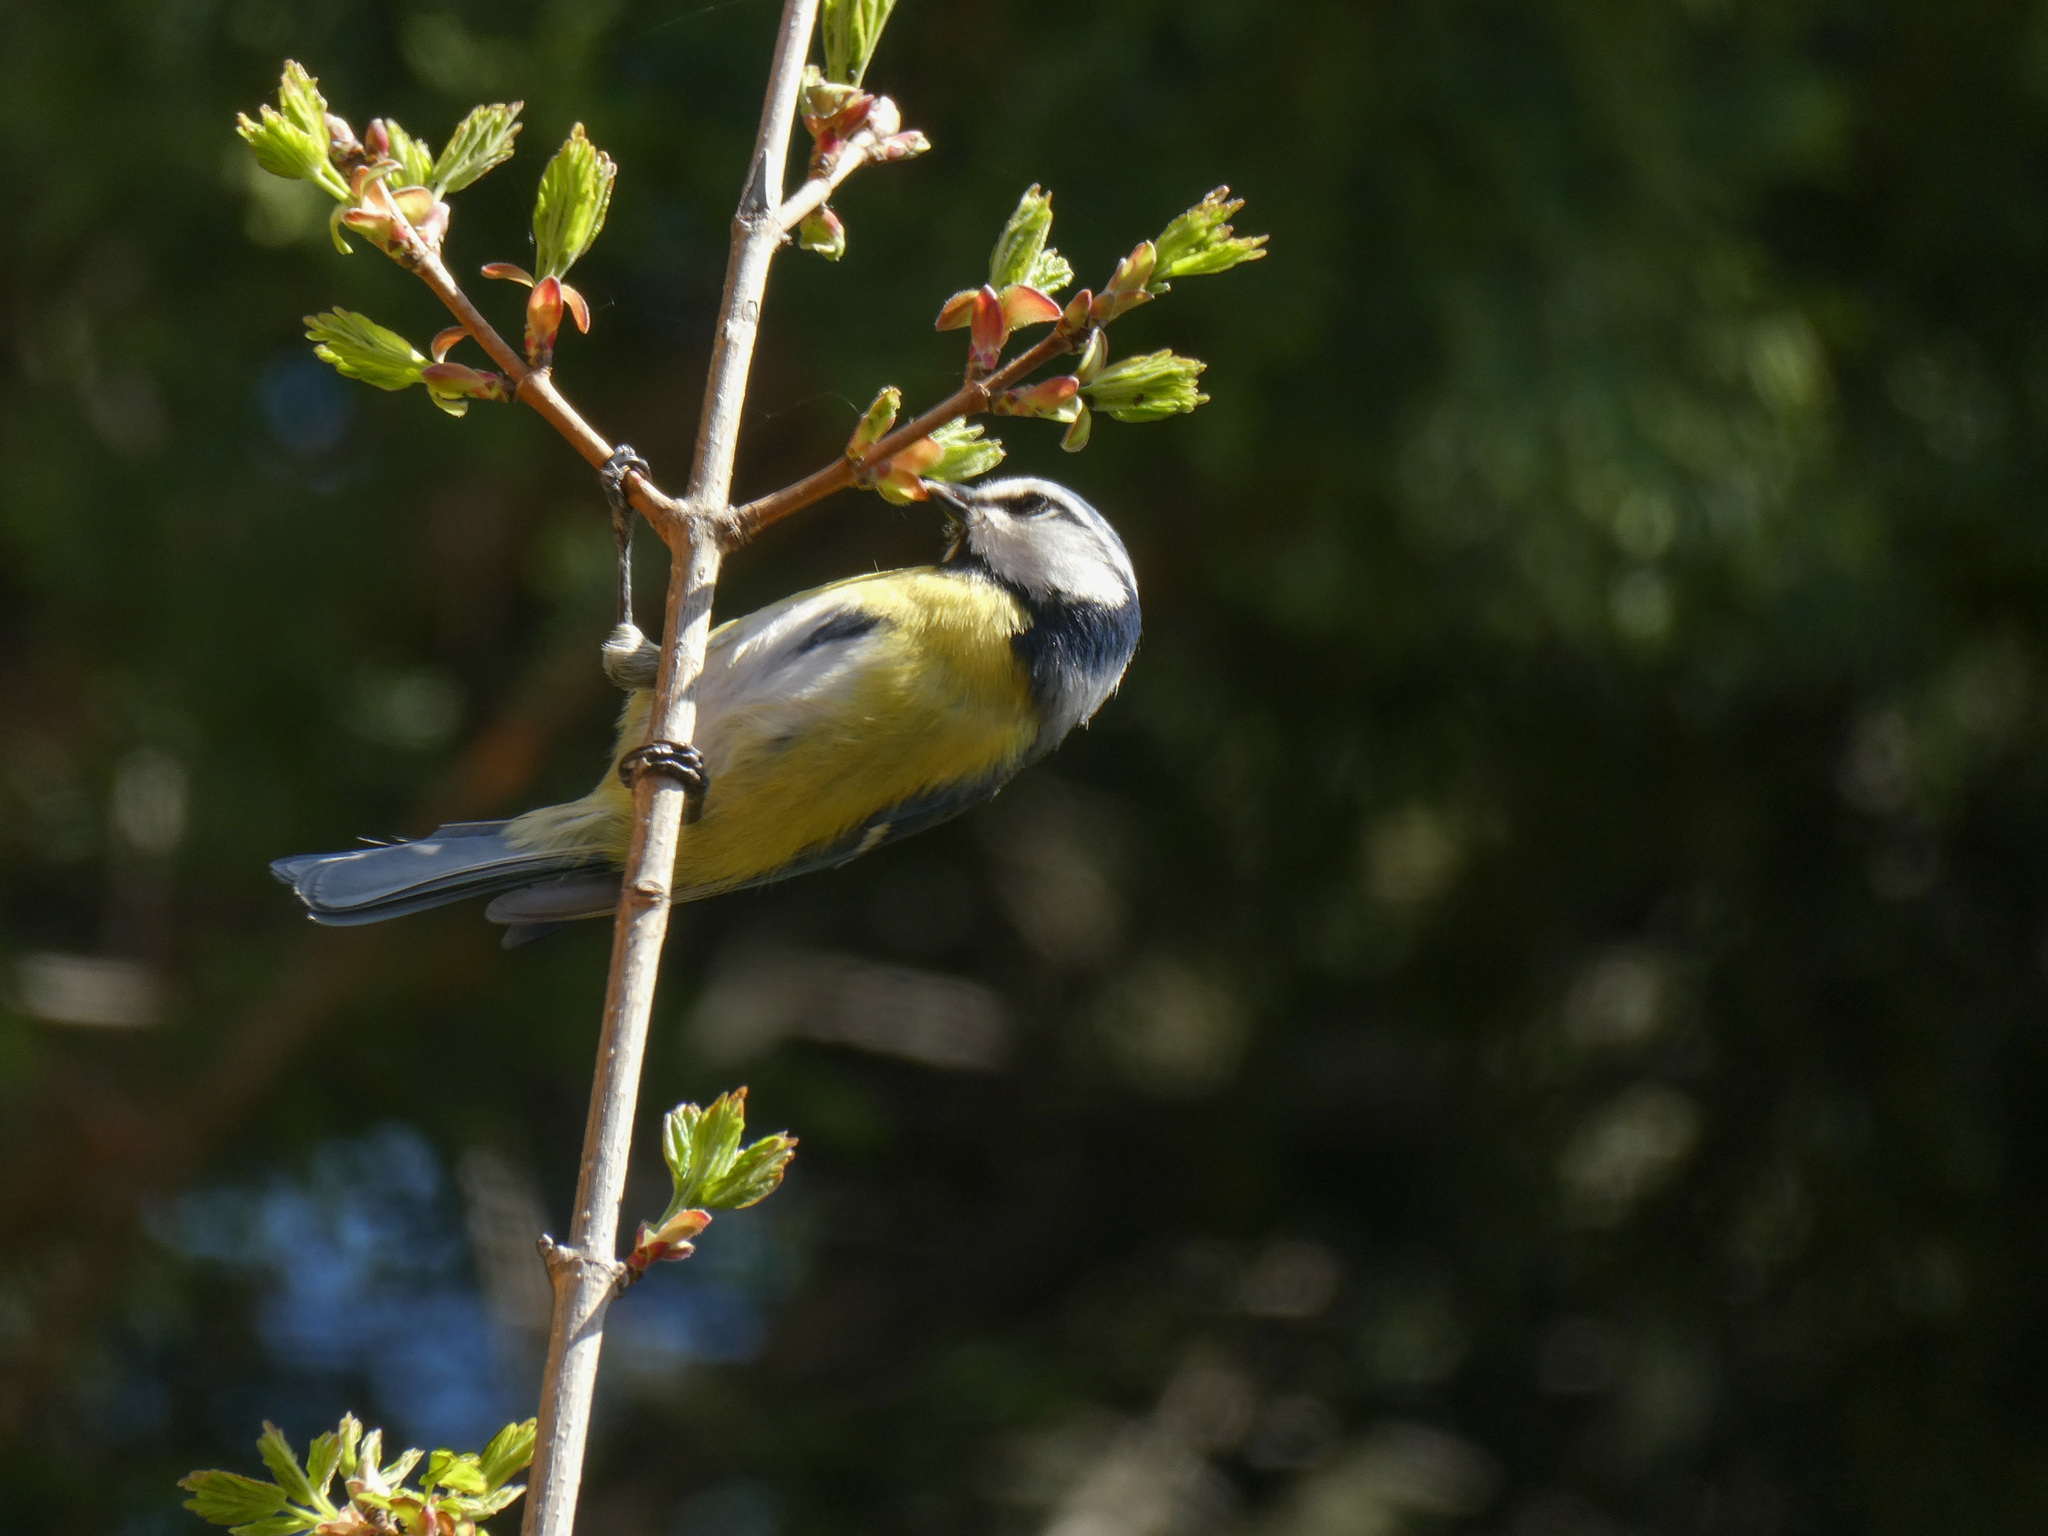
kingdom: Animalia
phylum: Chordata
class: Aves
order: Passeriformes
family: Paridae
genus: Cyanistes
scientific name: Cyanistes caeruleus
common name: Eurasian blue tit
